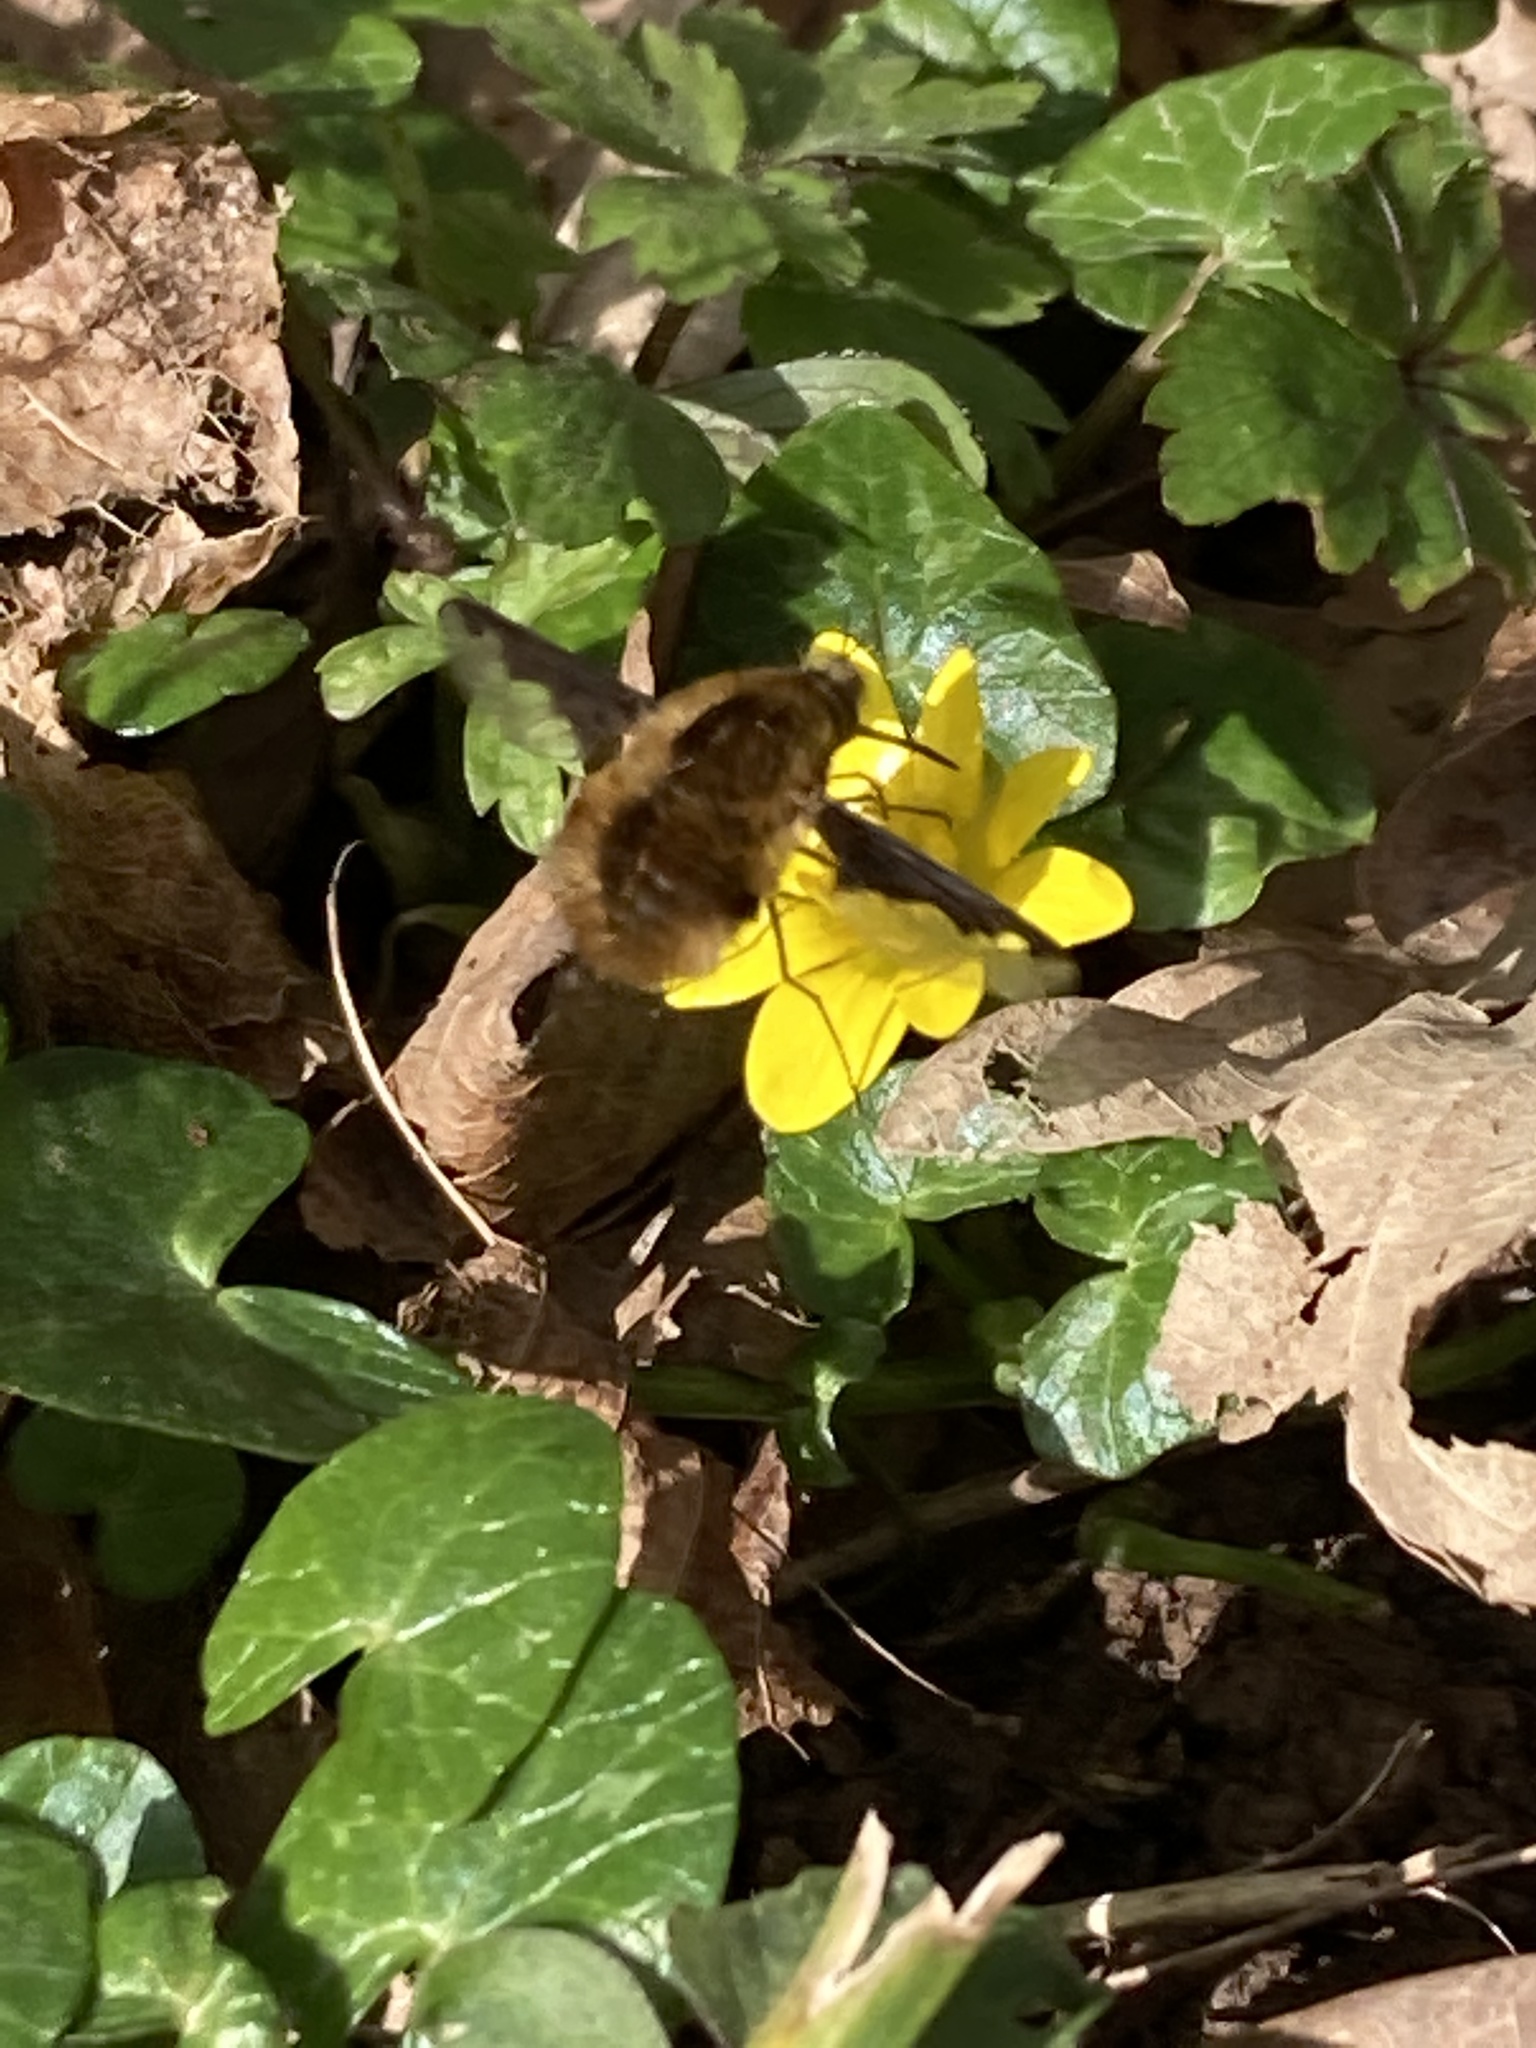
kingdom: Animalia
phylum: Arthropoda
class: Insecta
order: Diptera
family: Bombyliidae
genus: Bombylius
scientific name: Bombylius major
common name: Bee fly
